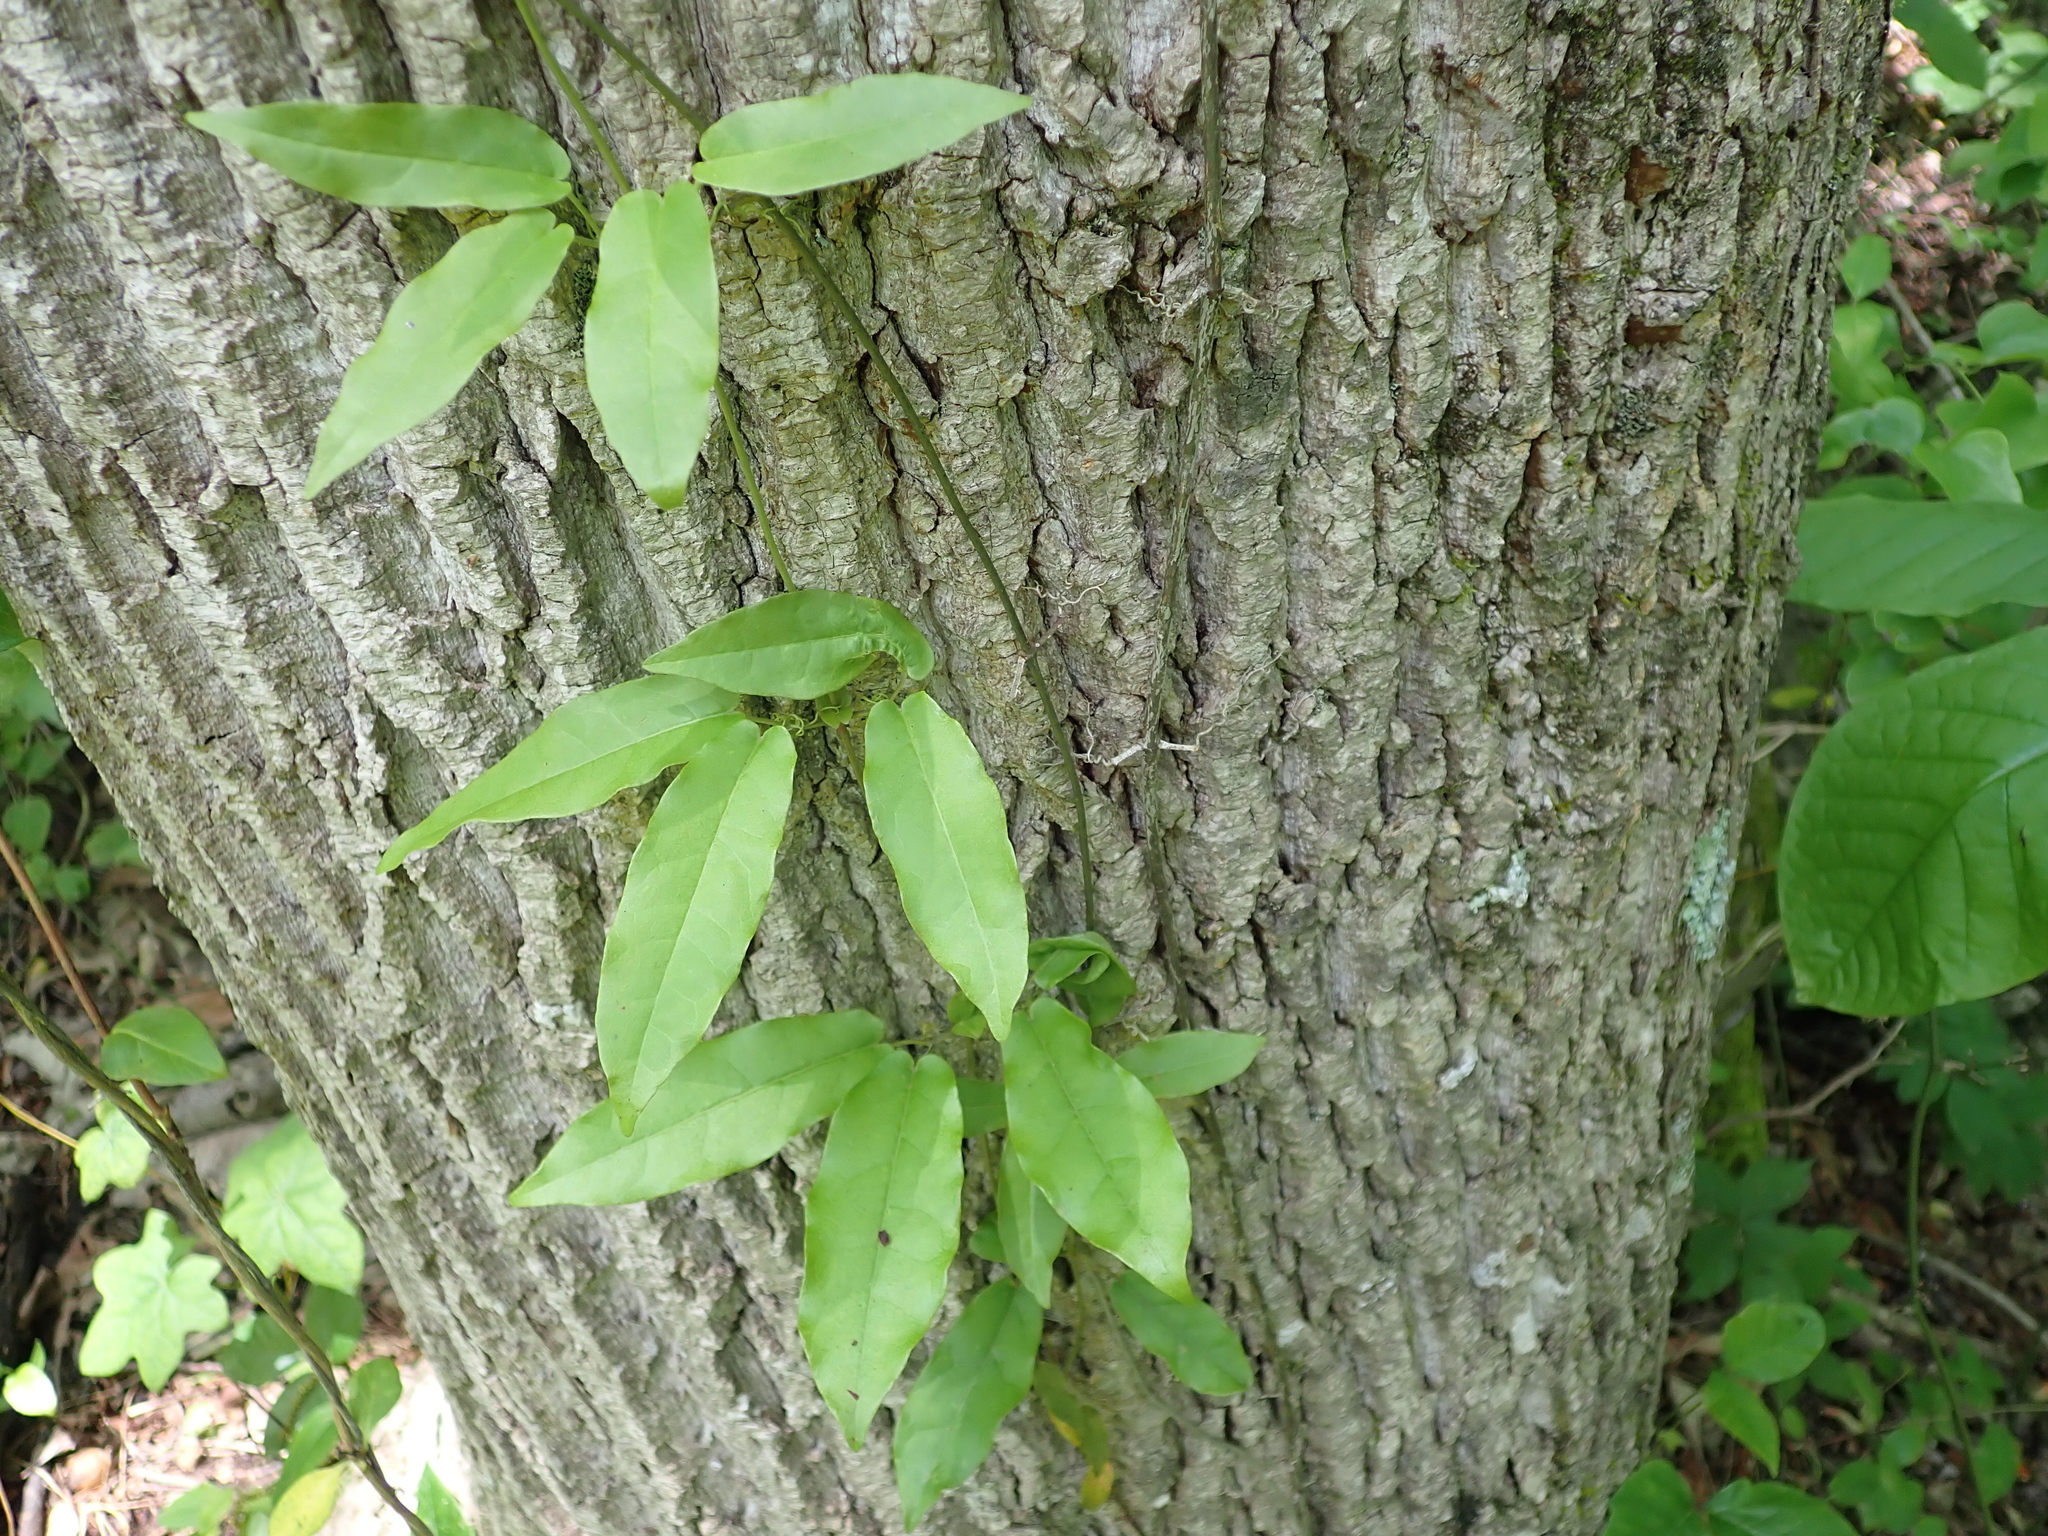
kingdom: Plantae
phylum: Tracheophyta
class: Magnoliopsida
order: Lamiales
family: Bignoniaceae
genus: Bignonia
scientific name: Bignonia capreolata
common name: Crossvine
